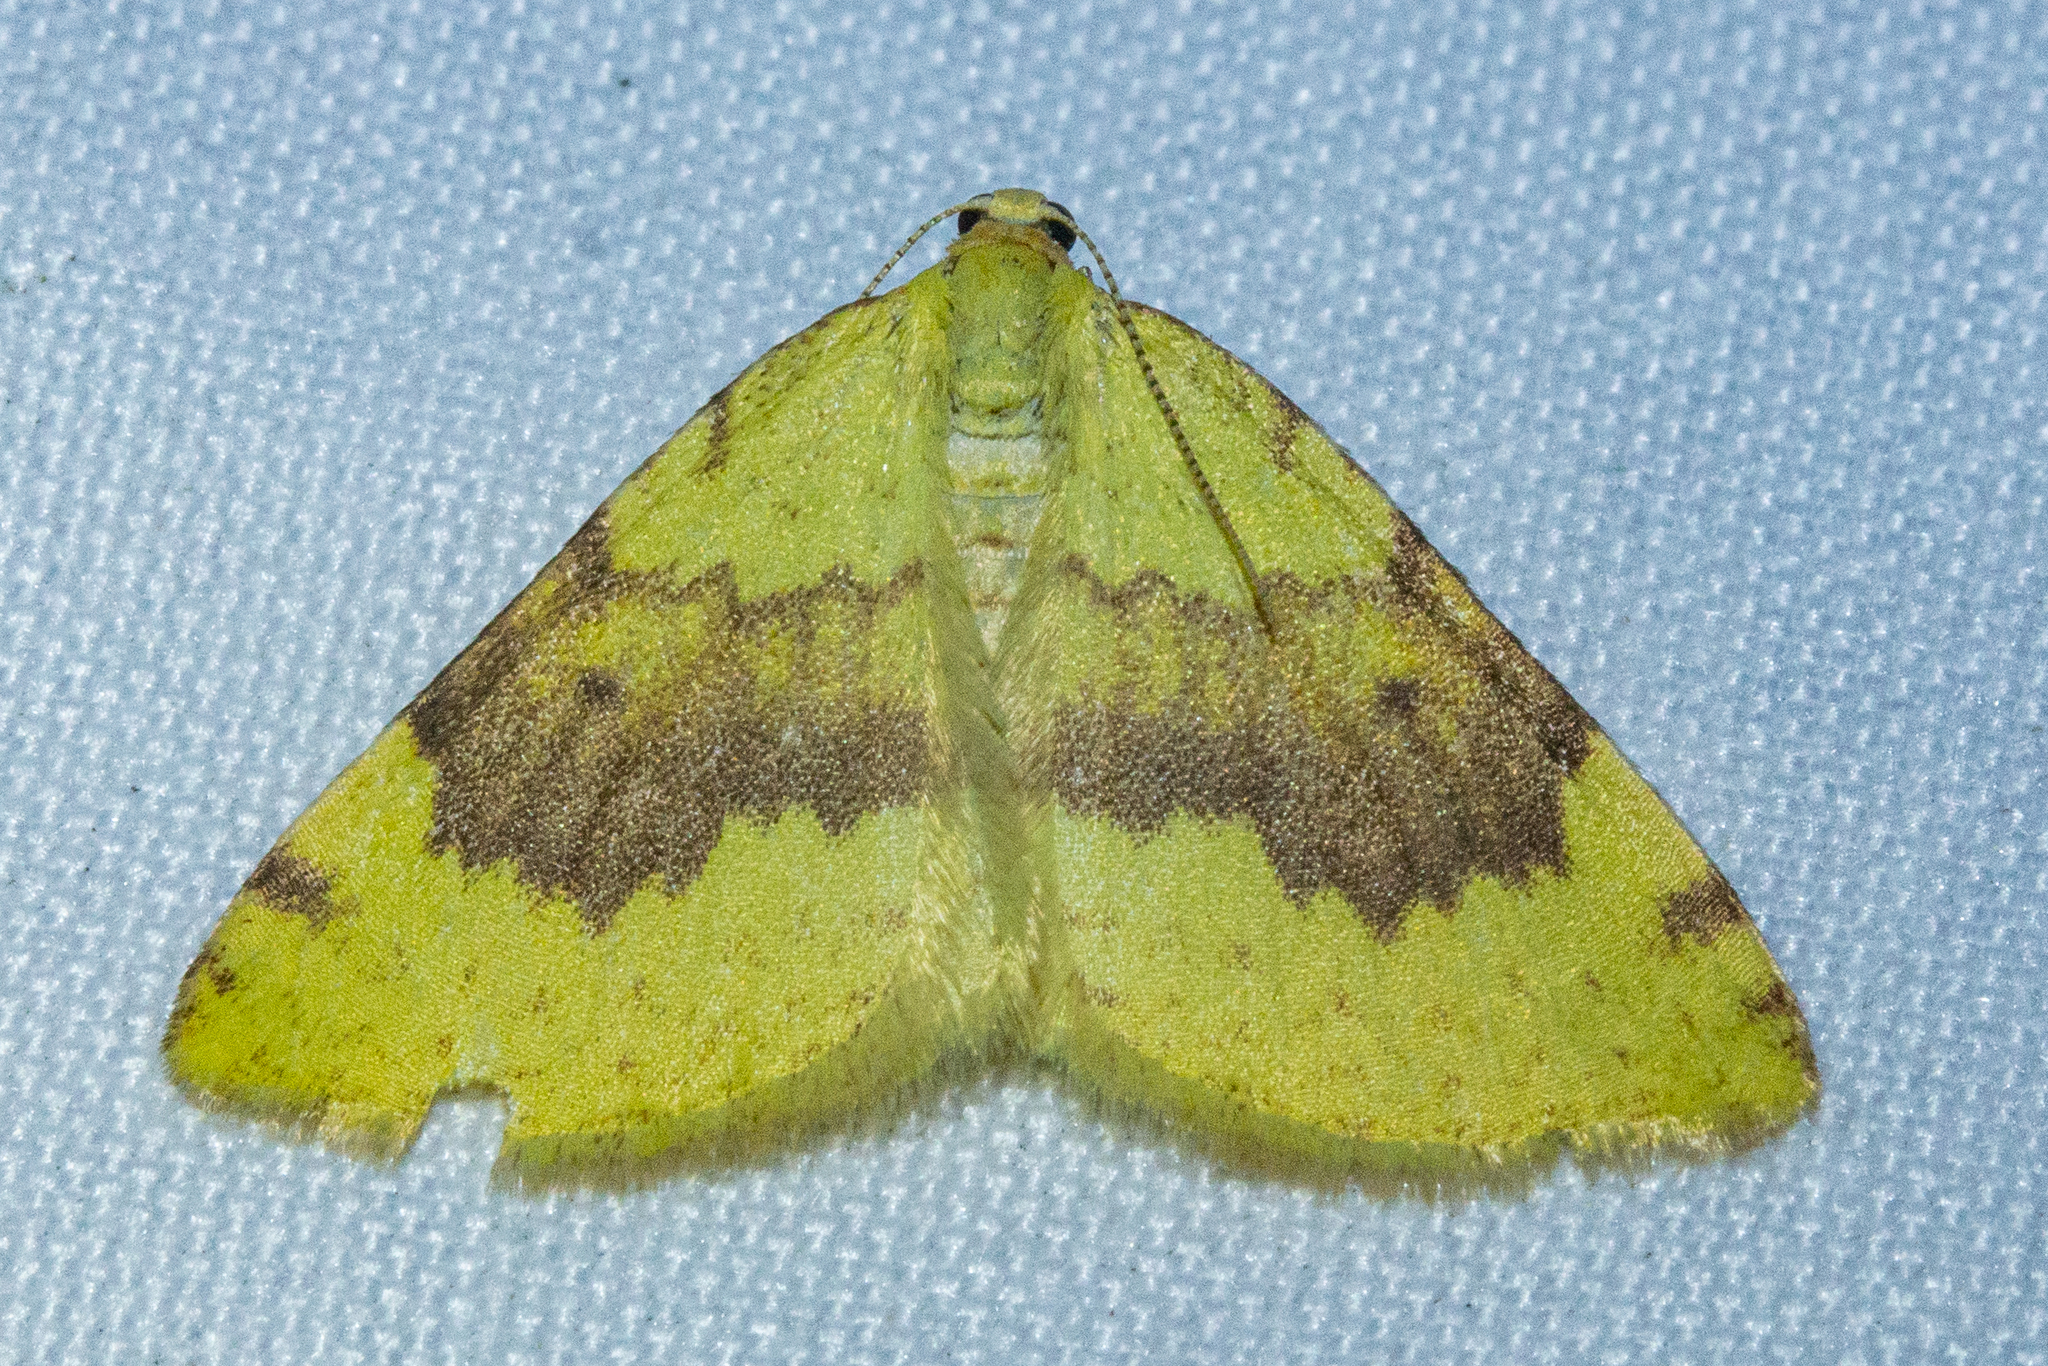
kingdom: Animalia
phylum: Arthropoda
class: Insecta
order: Lepidoptera
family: Geometridae
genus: Epiphryne
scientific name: Epiphryne undosata
